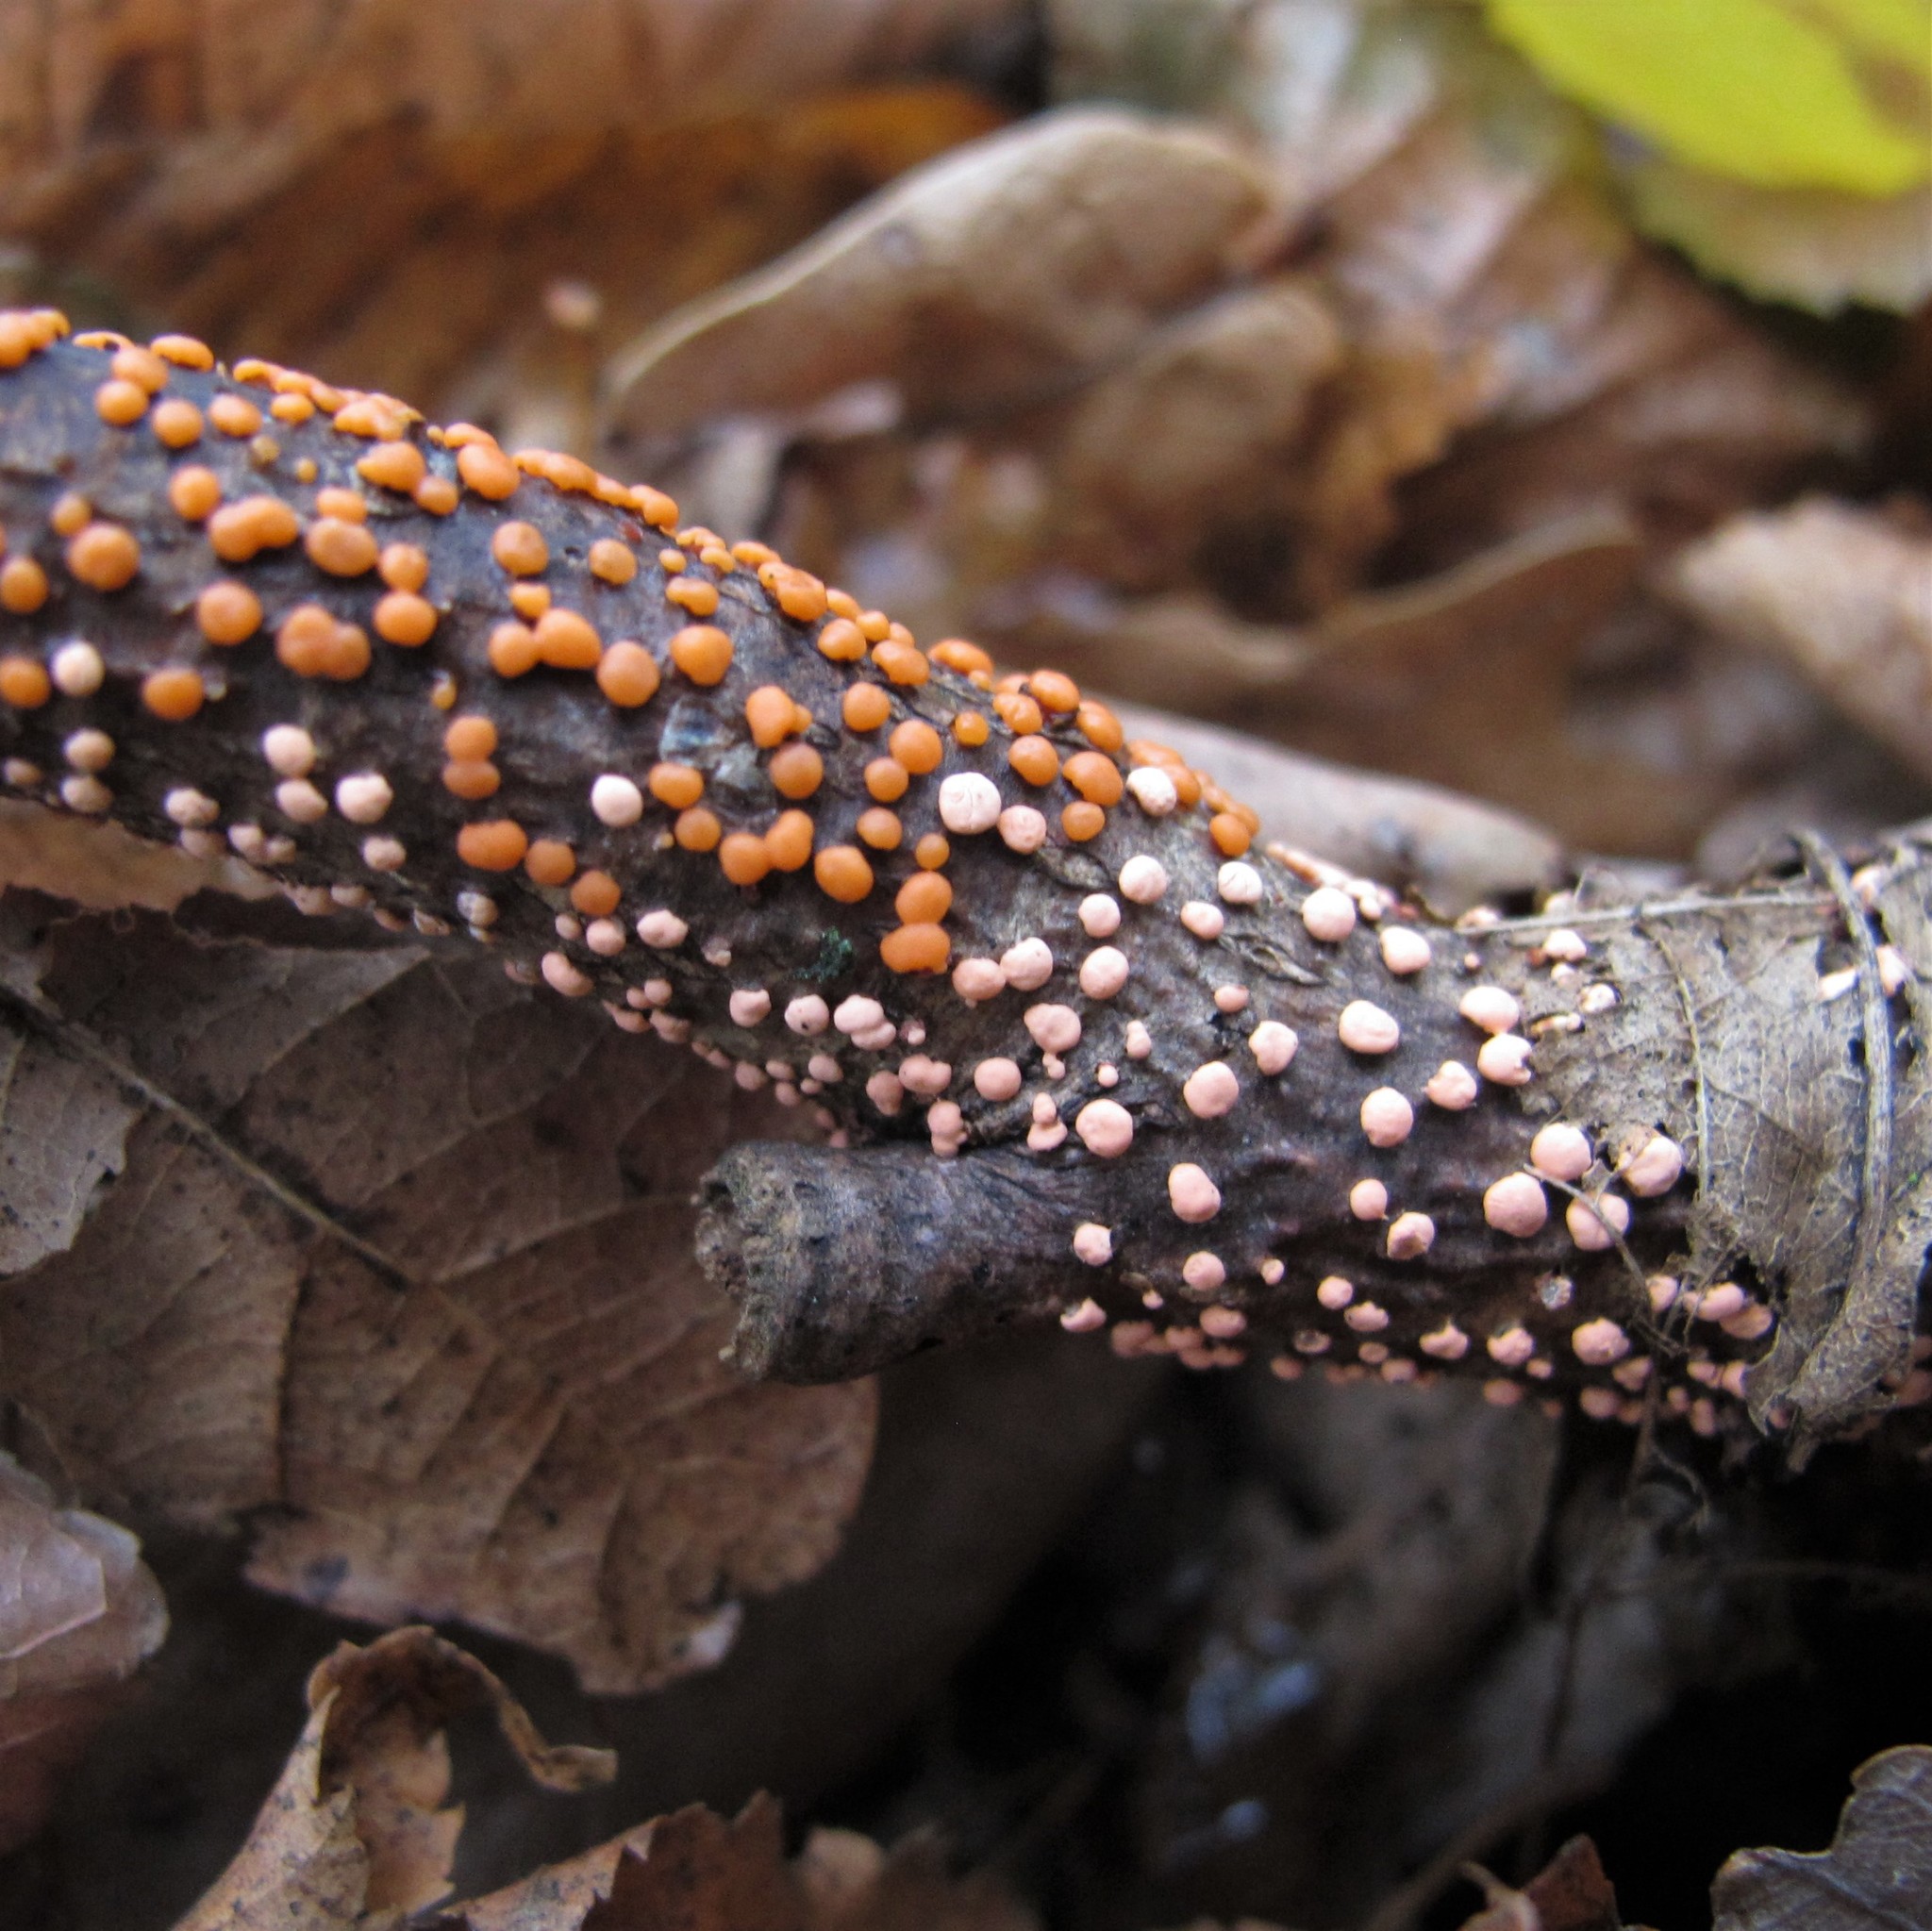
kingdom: Fungi
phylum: Ascomycota
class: Sordariomycetes
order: Hypocreales
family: Nectriaceae
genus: Nectria
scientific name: Nectria cinnabarina
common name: Coral spot
